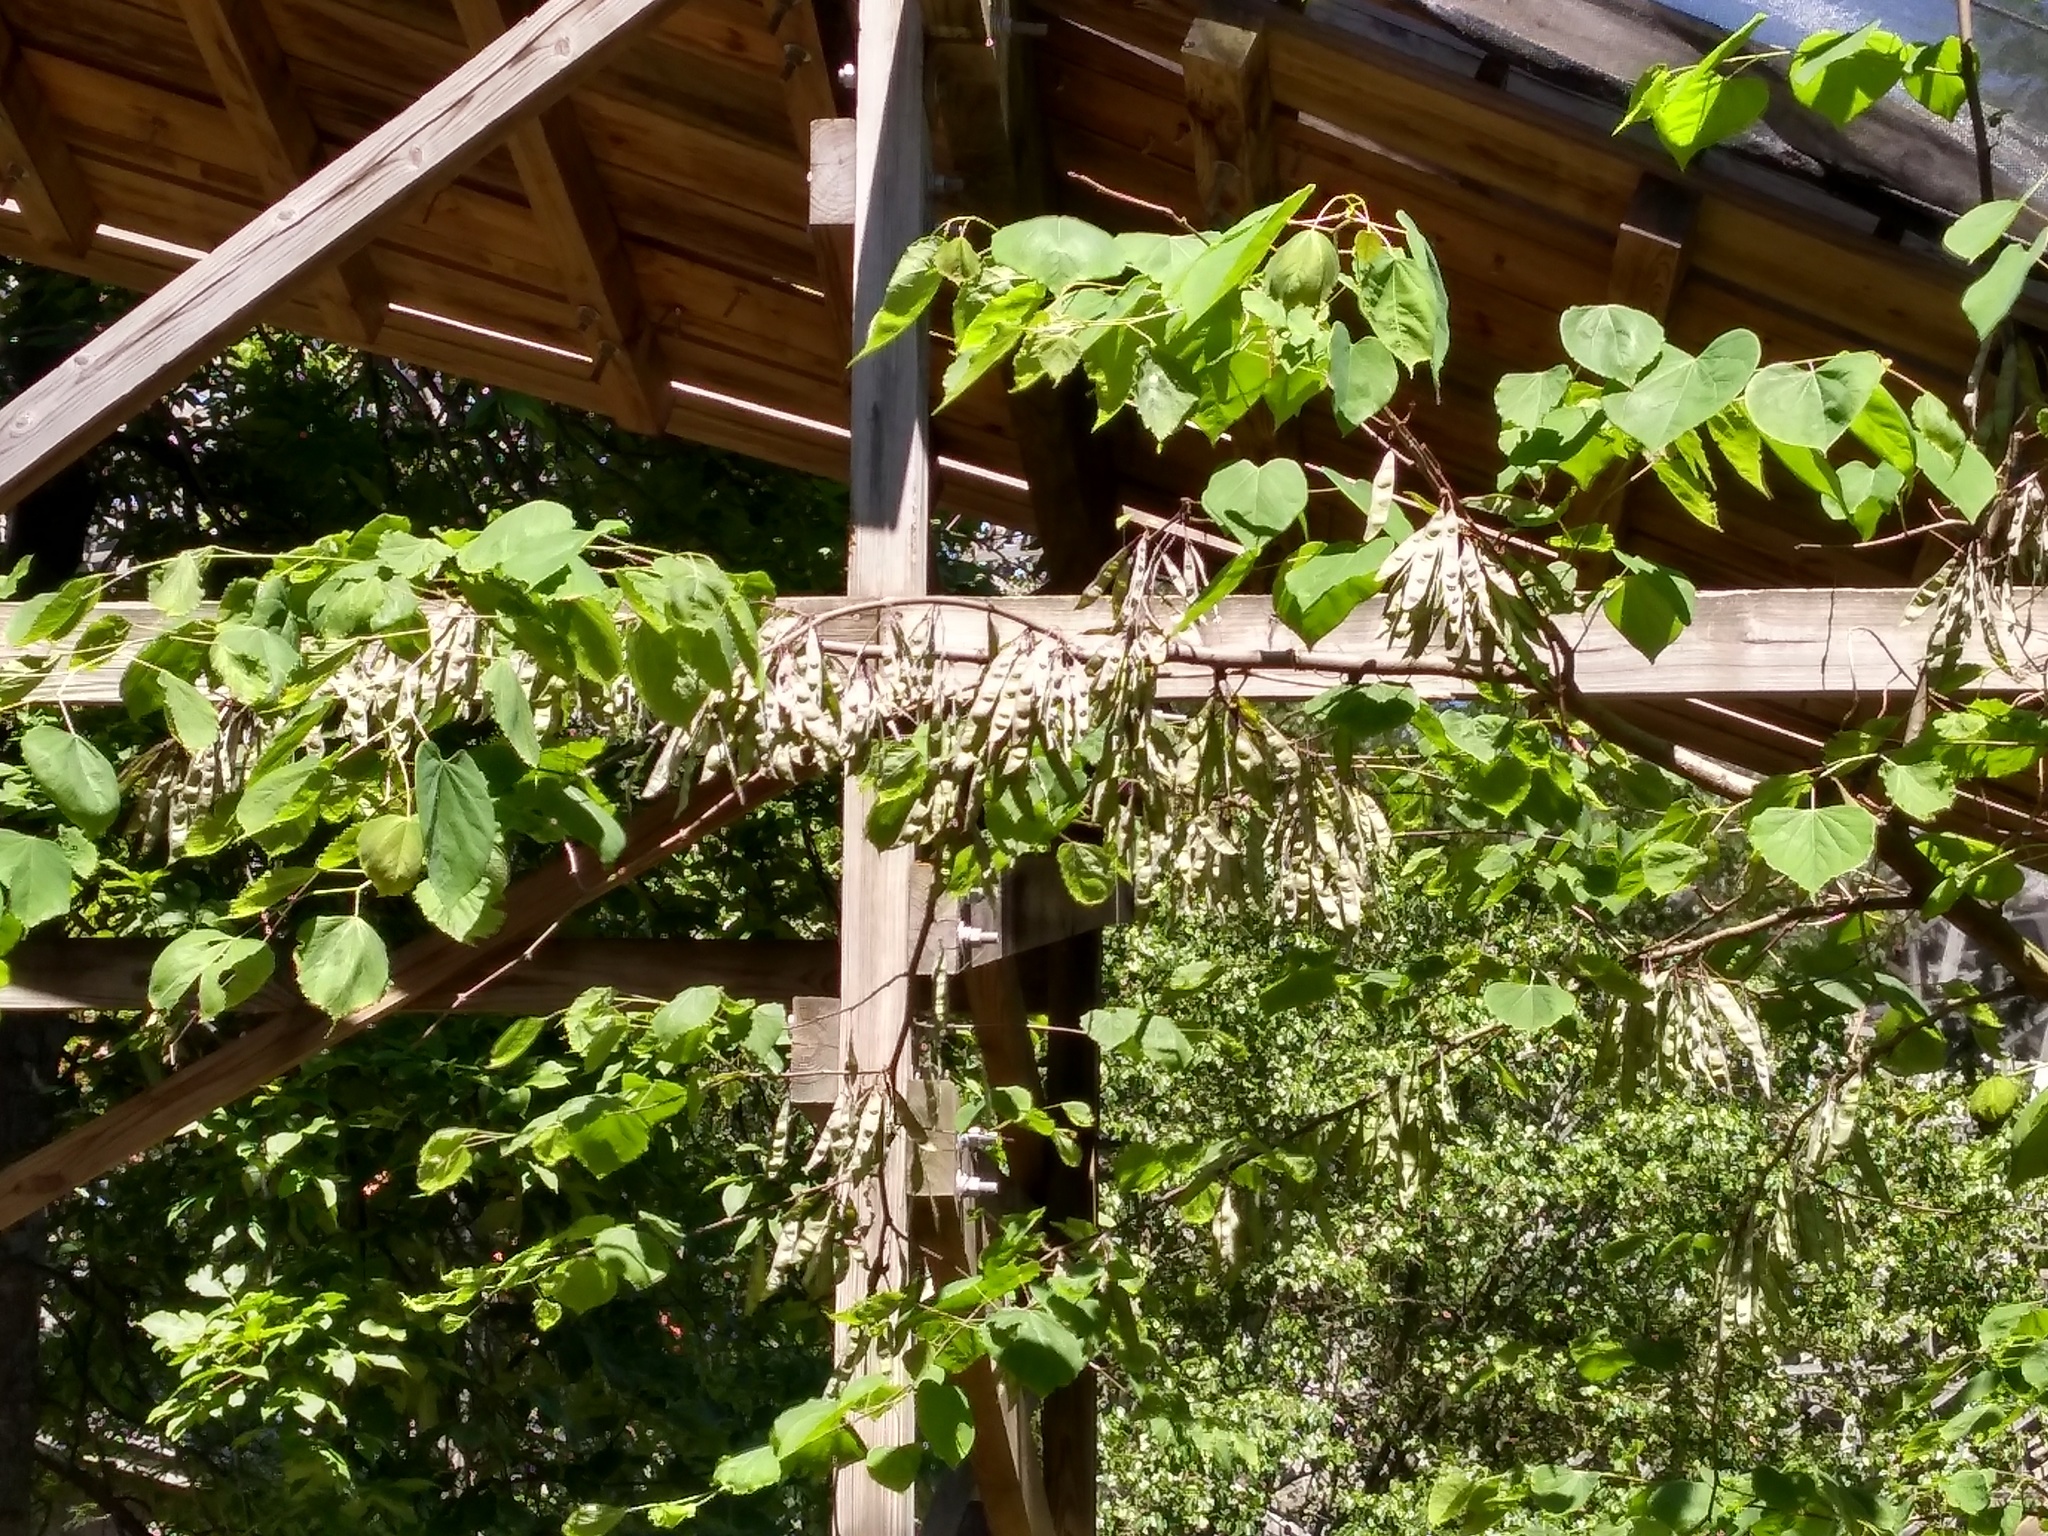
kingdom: Plantae
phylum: Tracheophyta
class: Magnoliopsida
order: Fabales
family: Fabaceae
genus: Cercis
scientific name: Cercis canadensis
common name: Eastern redbud
